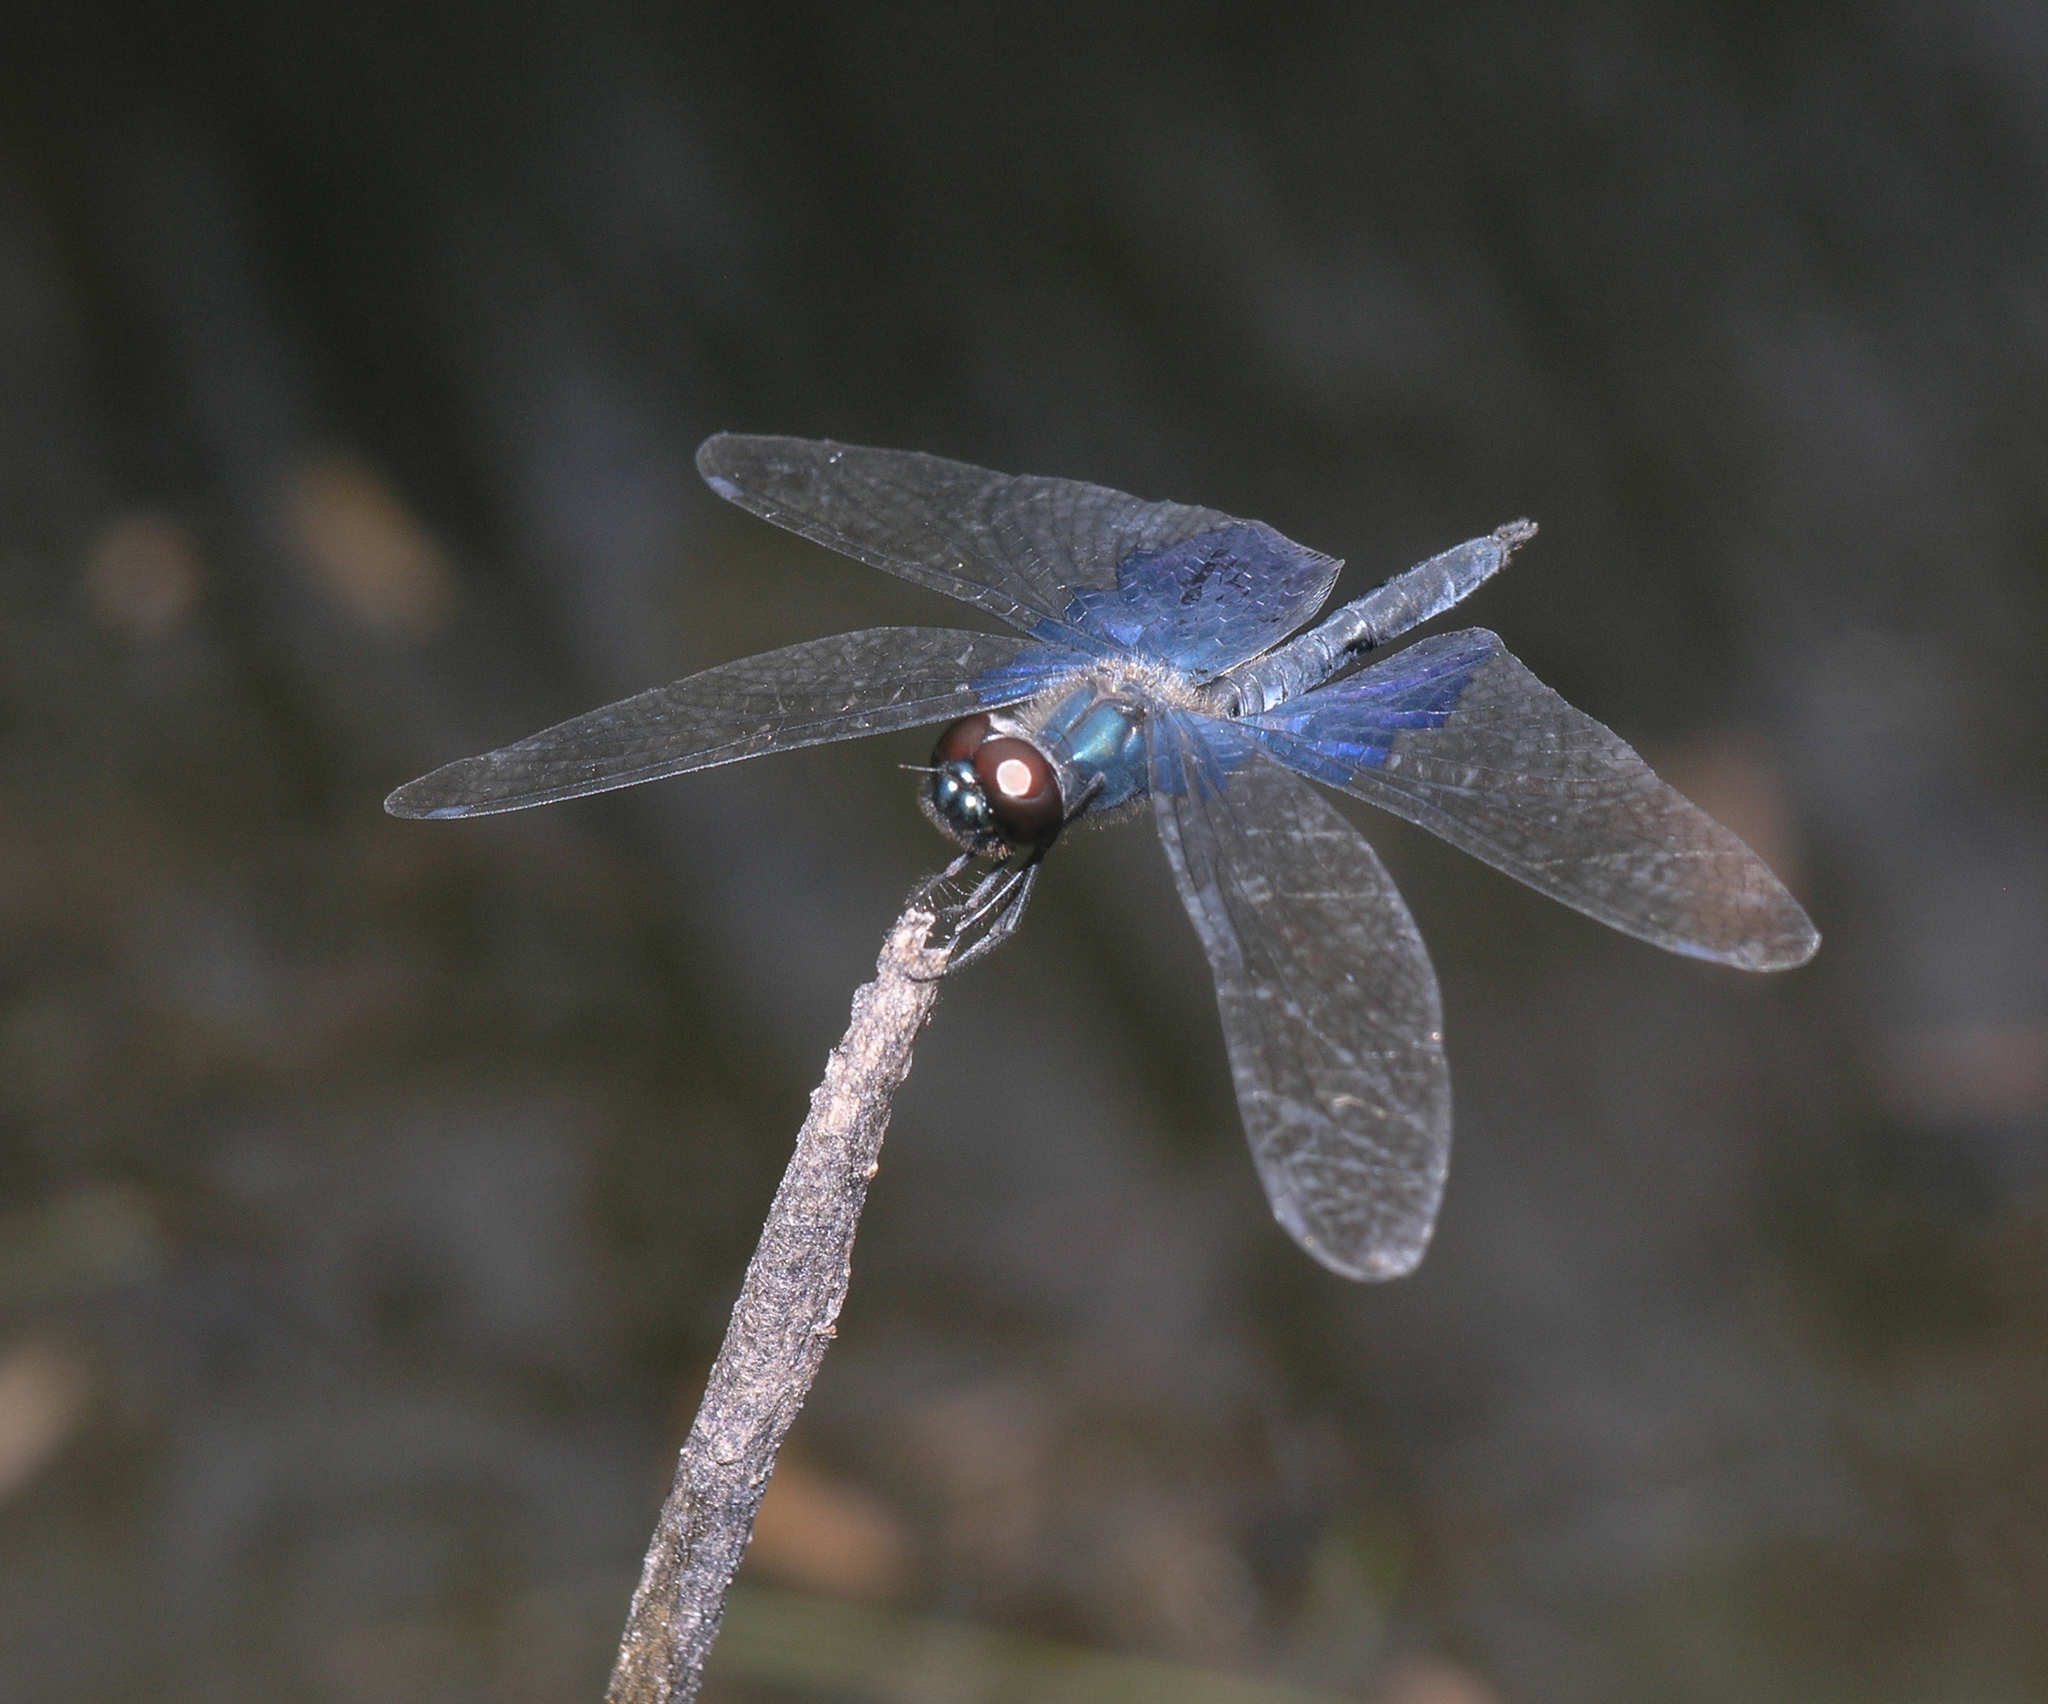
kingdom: Animalia
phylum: Arthropoda
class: Insecta
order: Odonata
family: Libellulidae
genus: Rhyothemis
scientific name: Rhyothemis triangularis
